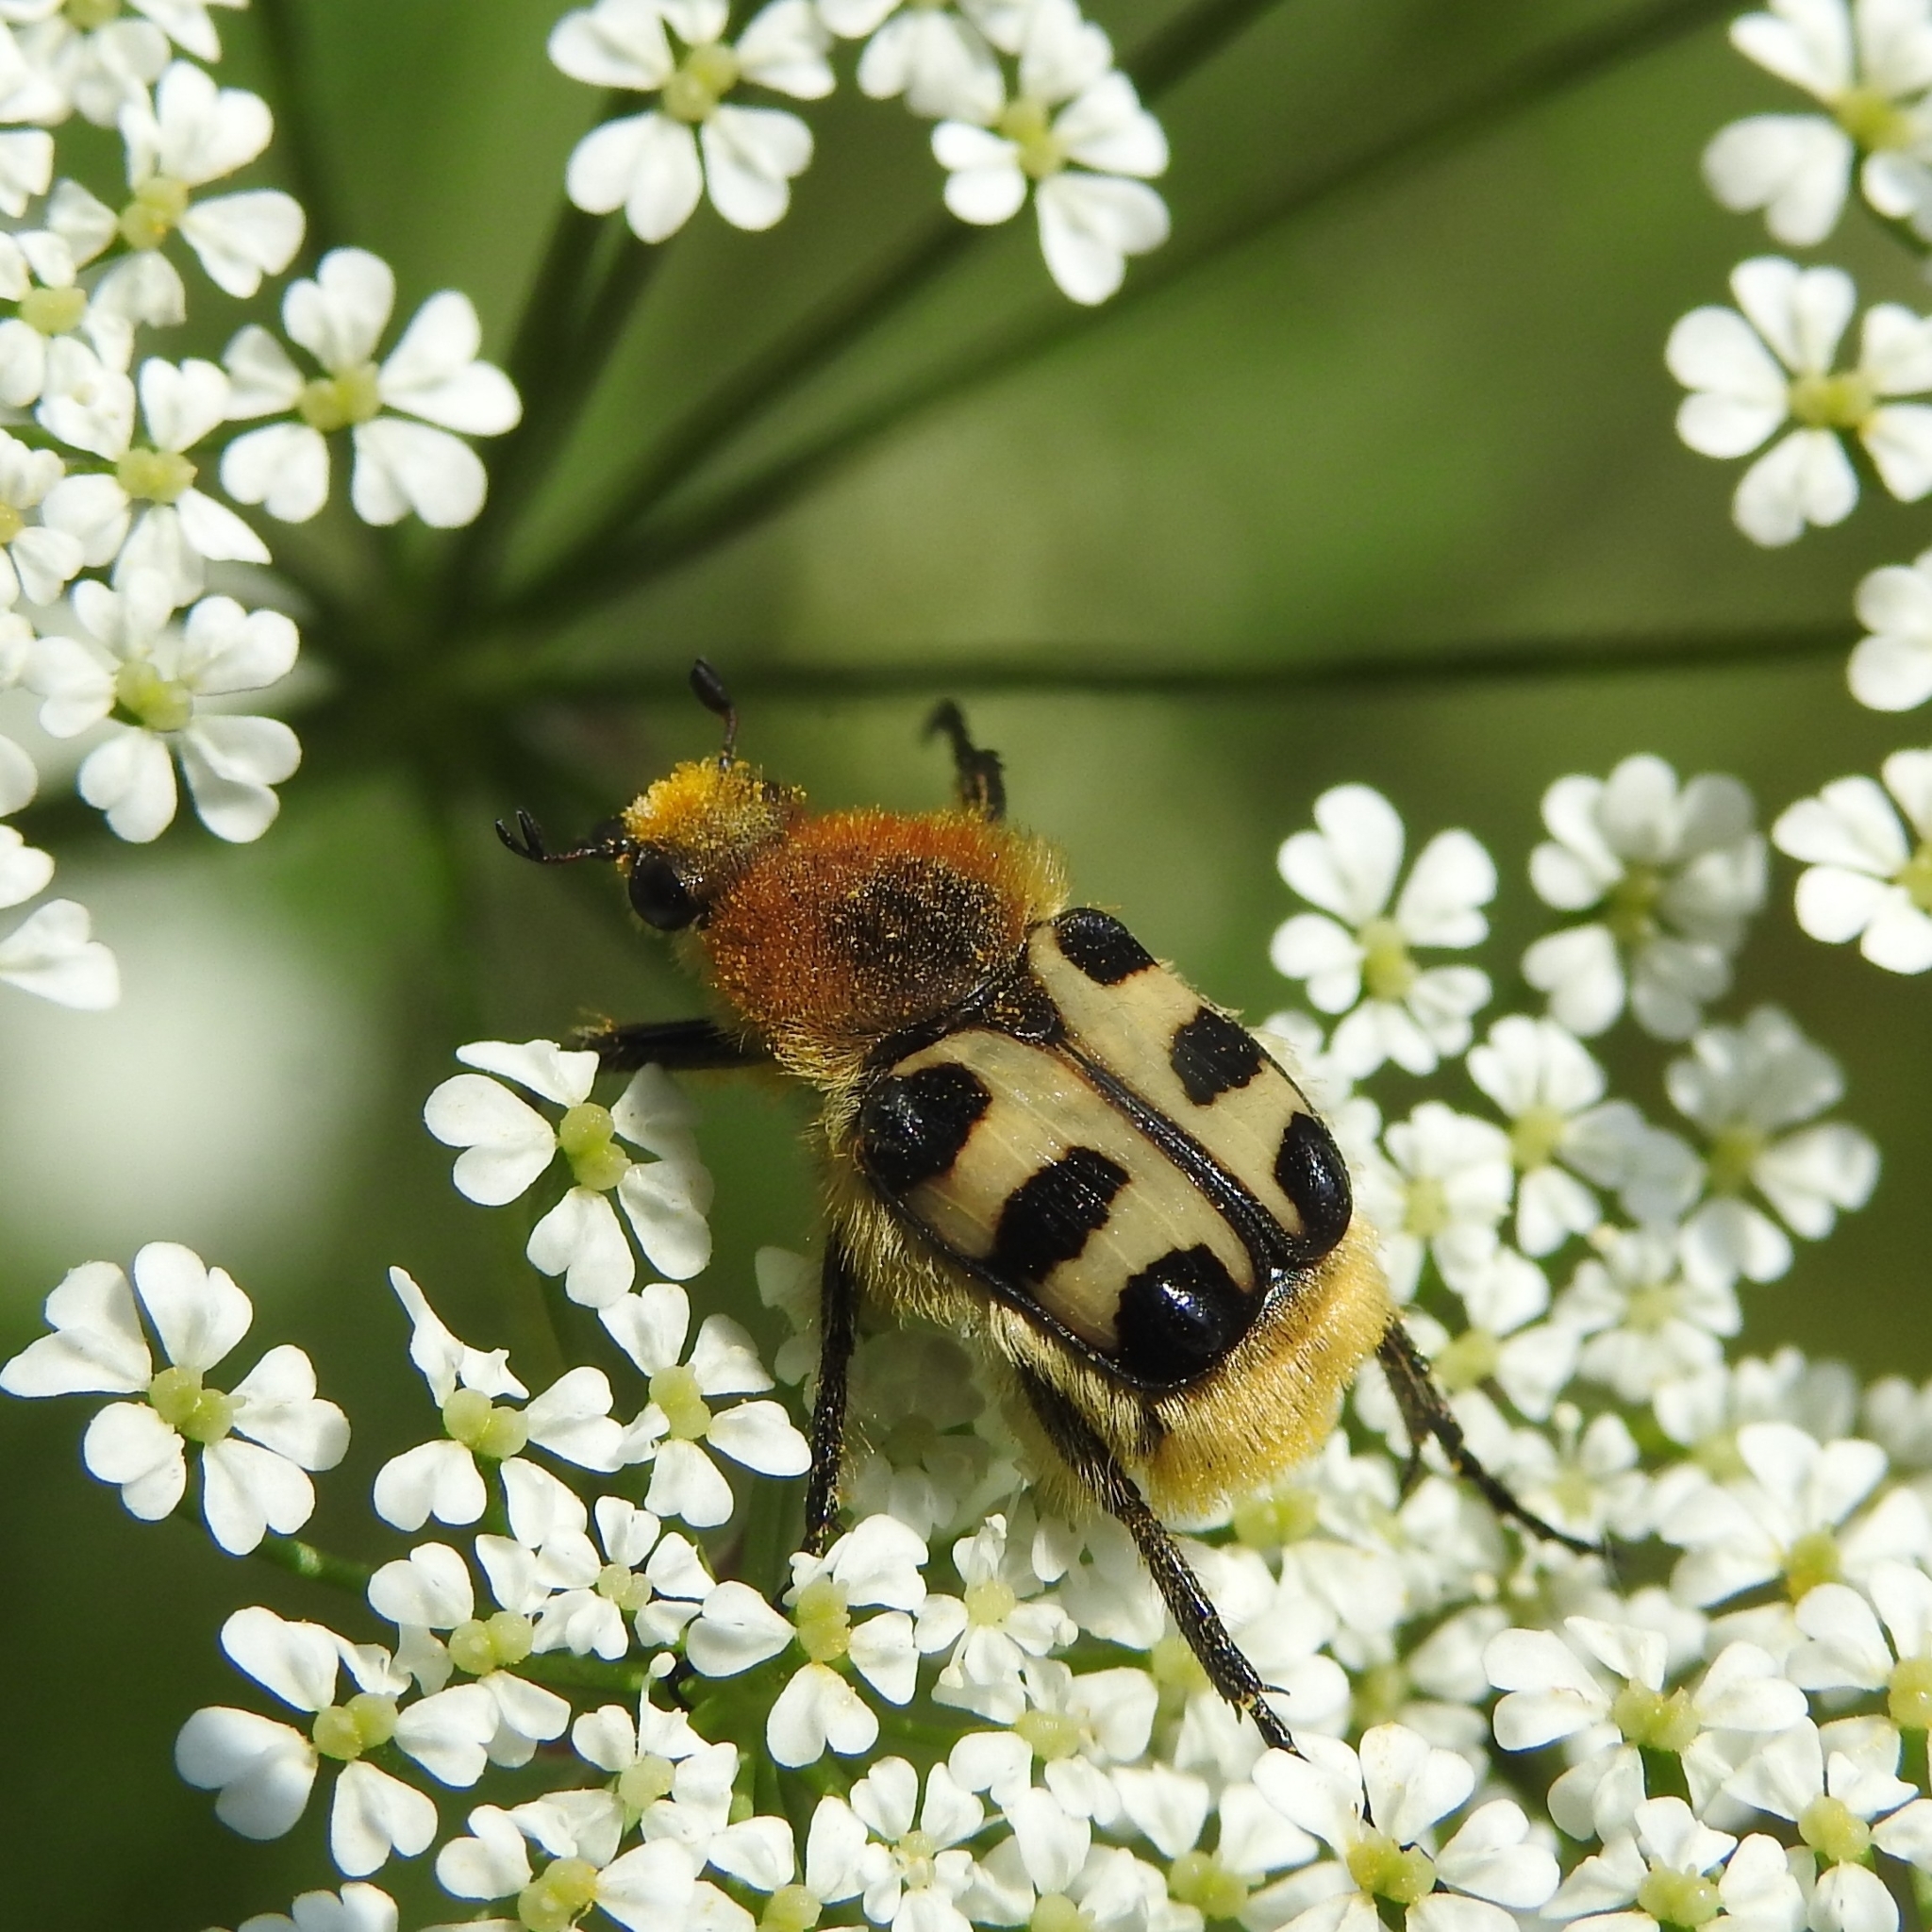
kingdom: Animalia
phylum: Arthropoda
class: Insecta
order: Coleoptera
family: Scarabaeidae
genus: Trichius
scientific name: Trichius gallicus
